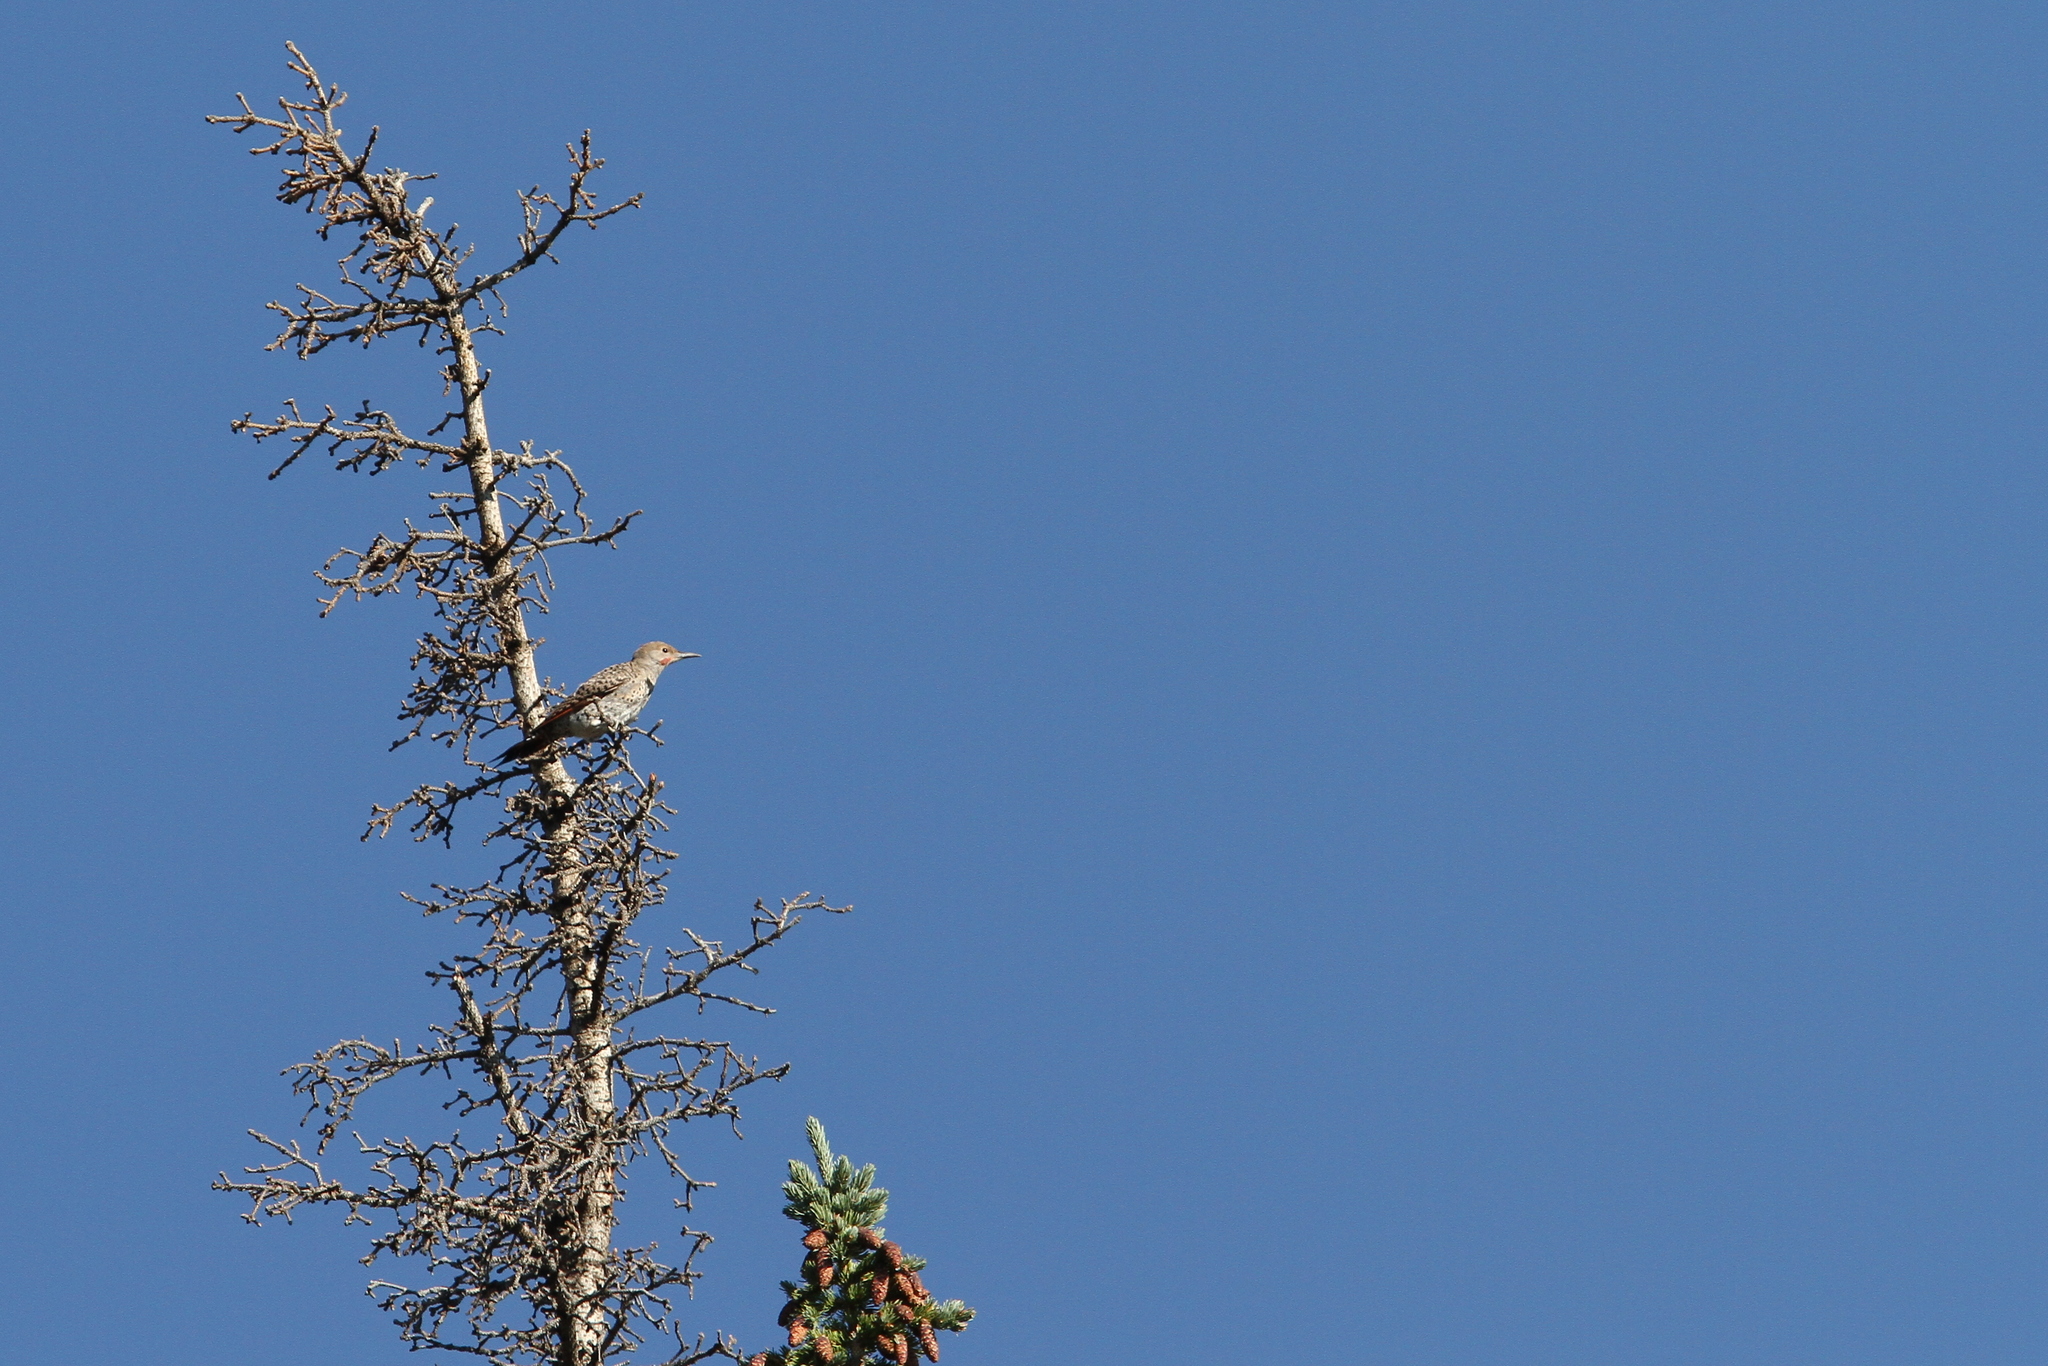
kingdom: Animalia
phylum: Chordata
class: Aves
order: Piciformes
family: Picidae
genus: Colaptes
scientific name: Colaptes auratus
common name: Northern flicker
